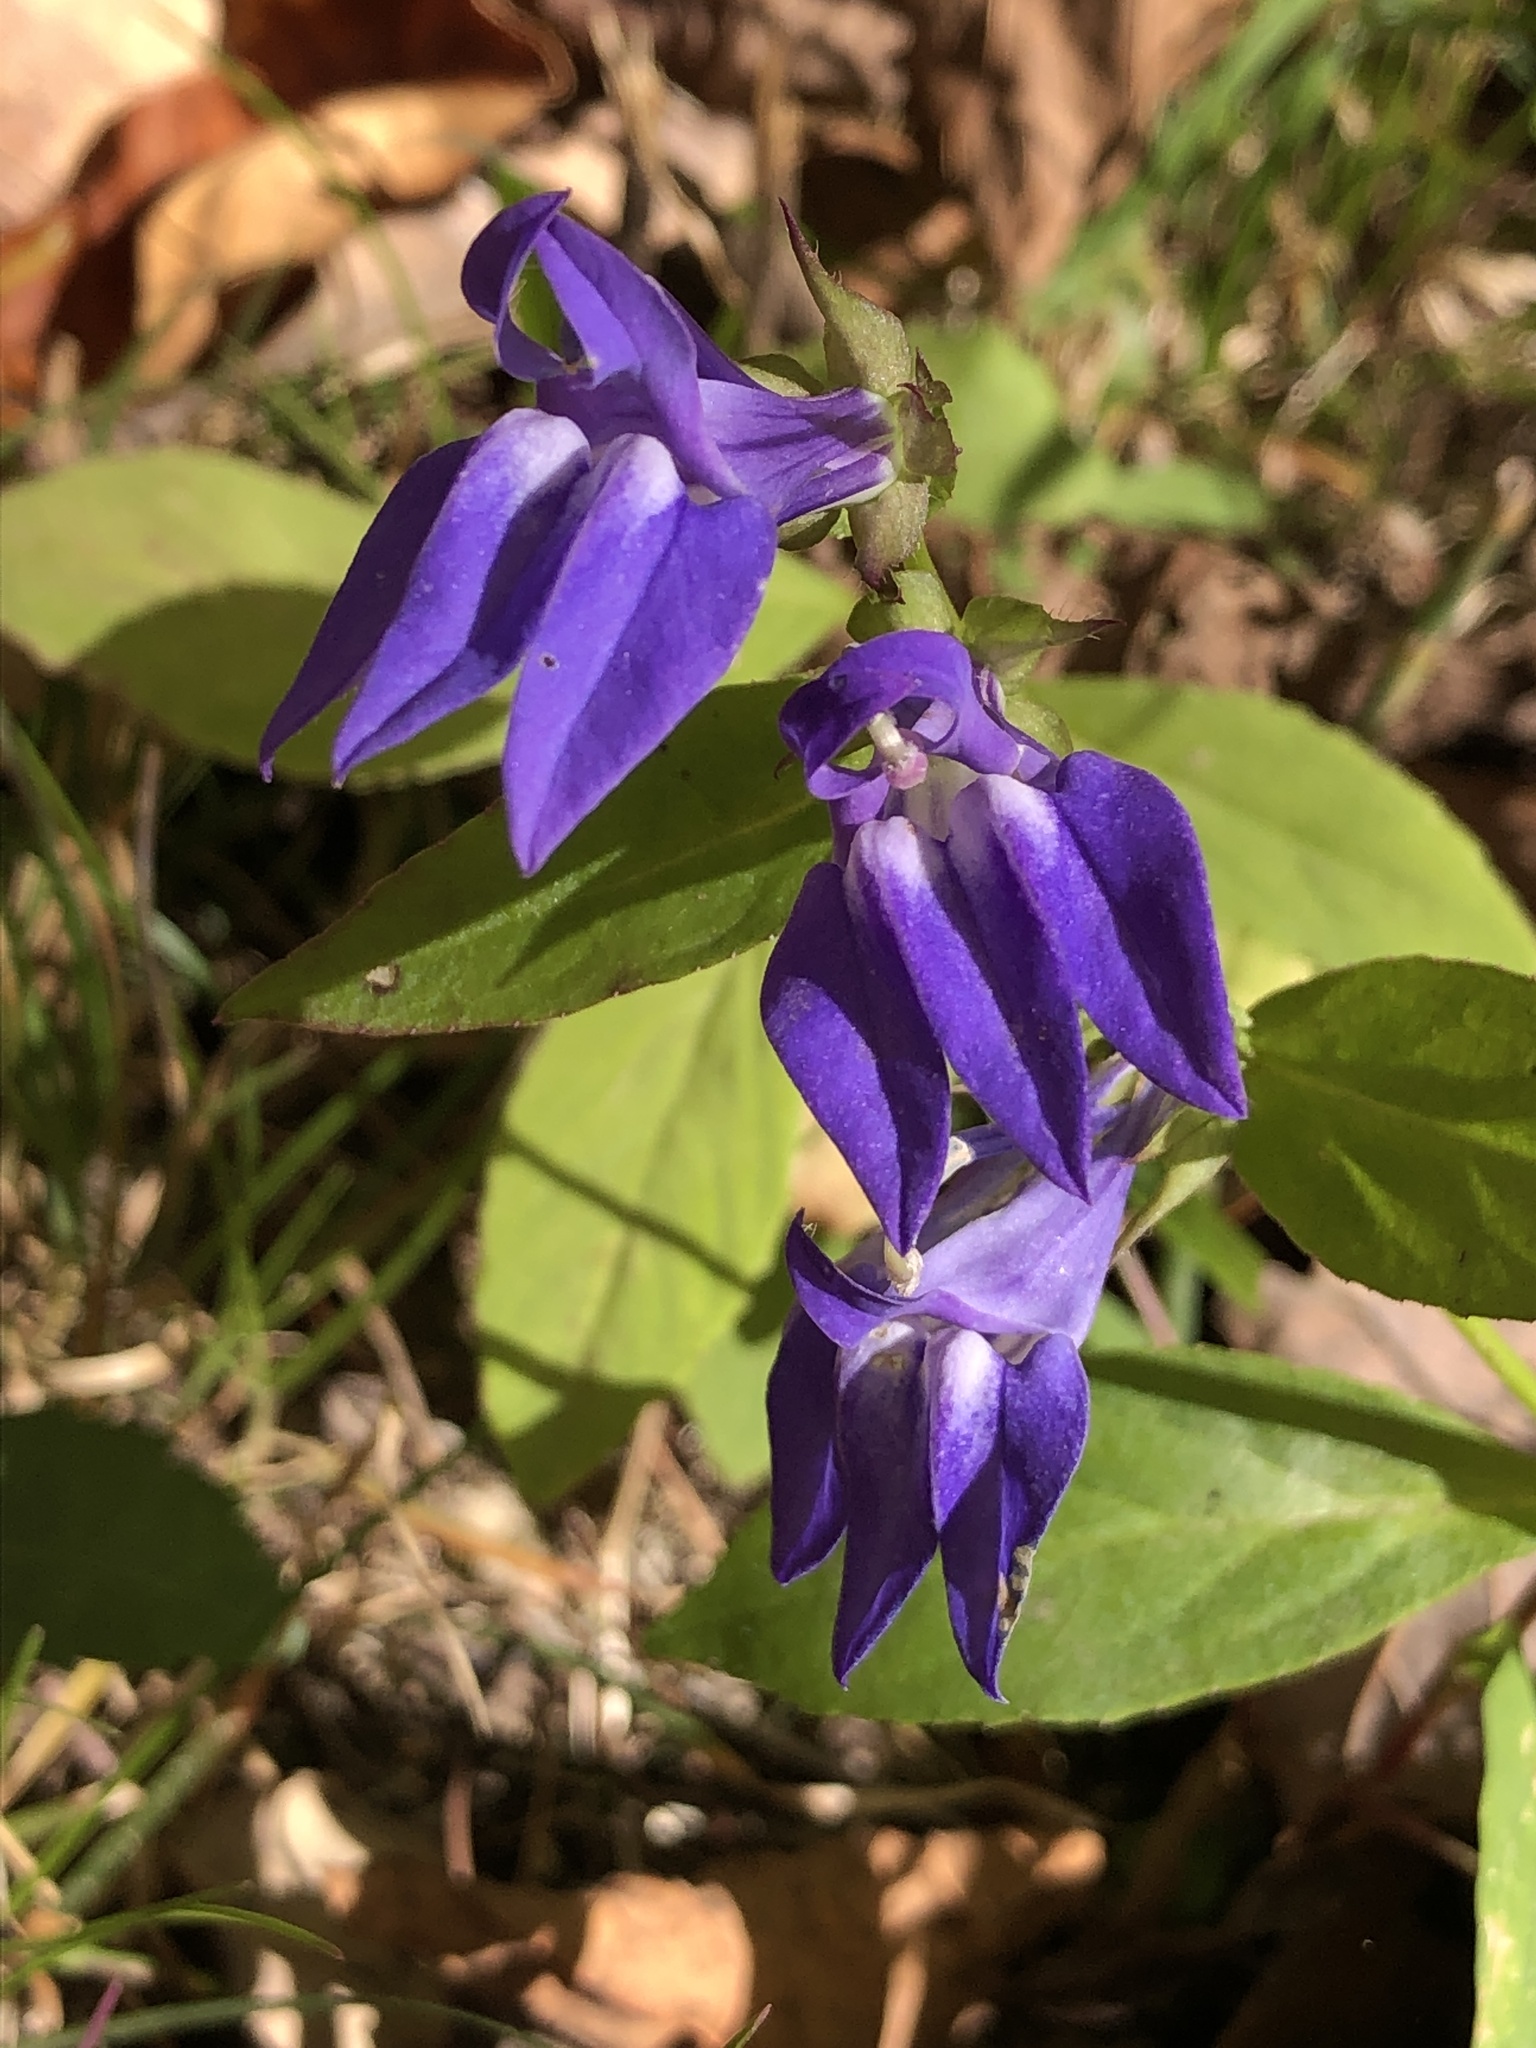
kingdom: Plantae
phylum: Tracheophyta
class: Magnoliopsida
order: Asterales
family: Campanulaceae
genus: Lobelia
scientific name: Lobelia siphilitica
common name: Great lobelia
